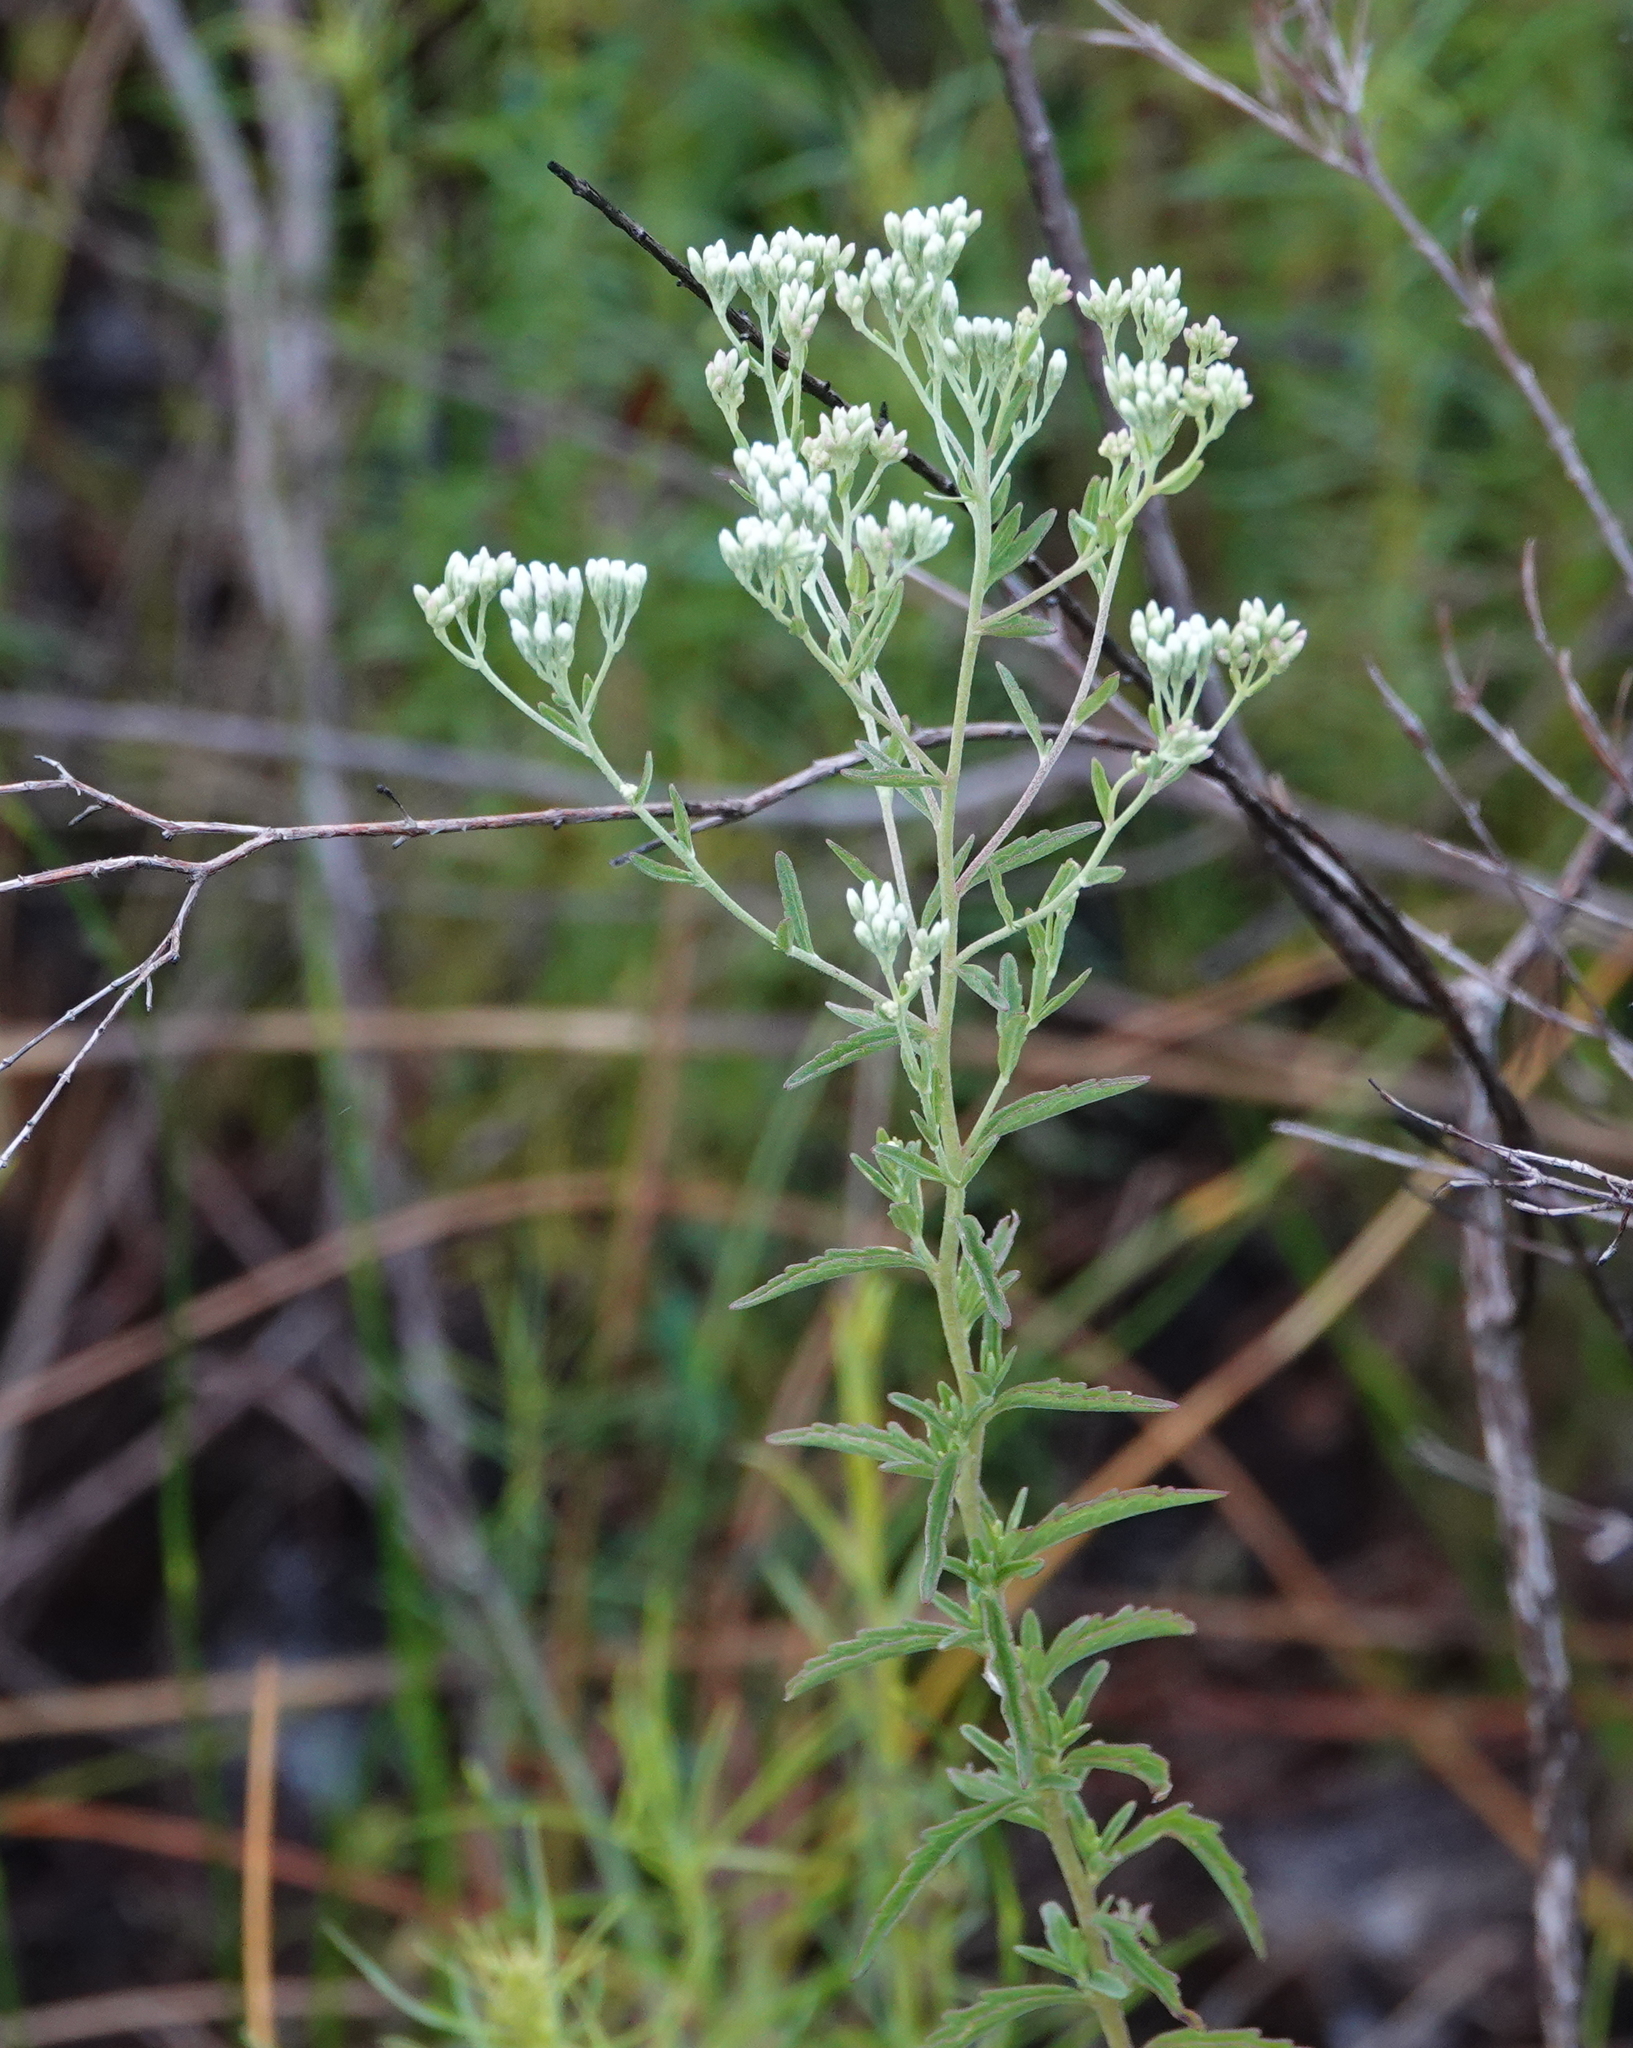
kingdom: Plantae
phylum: Tracheophyta
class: Magnoliopsida
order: Asterales
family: Asteraceae
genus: Eupatorium
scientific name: Eupatorium mohrii
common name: Mohr's thoroughwort
